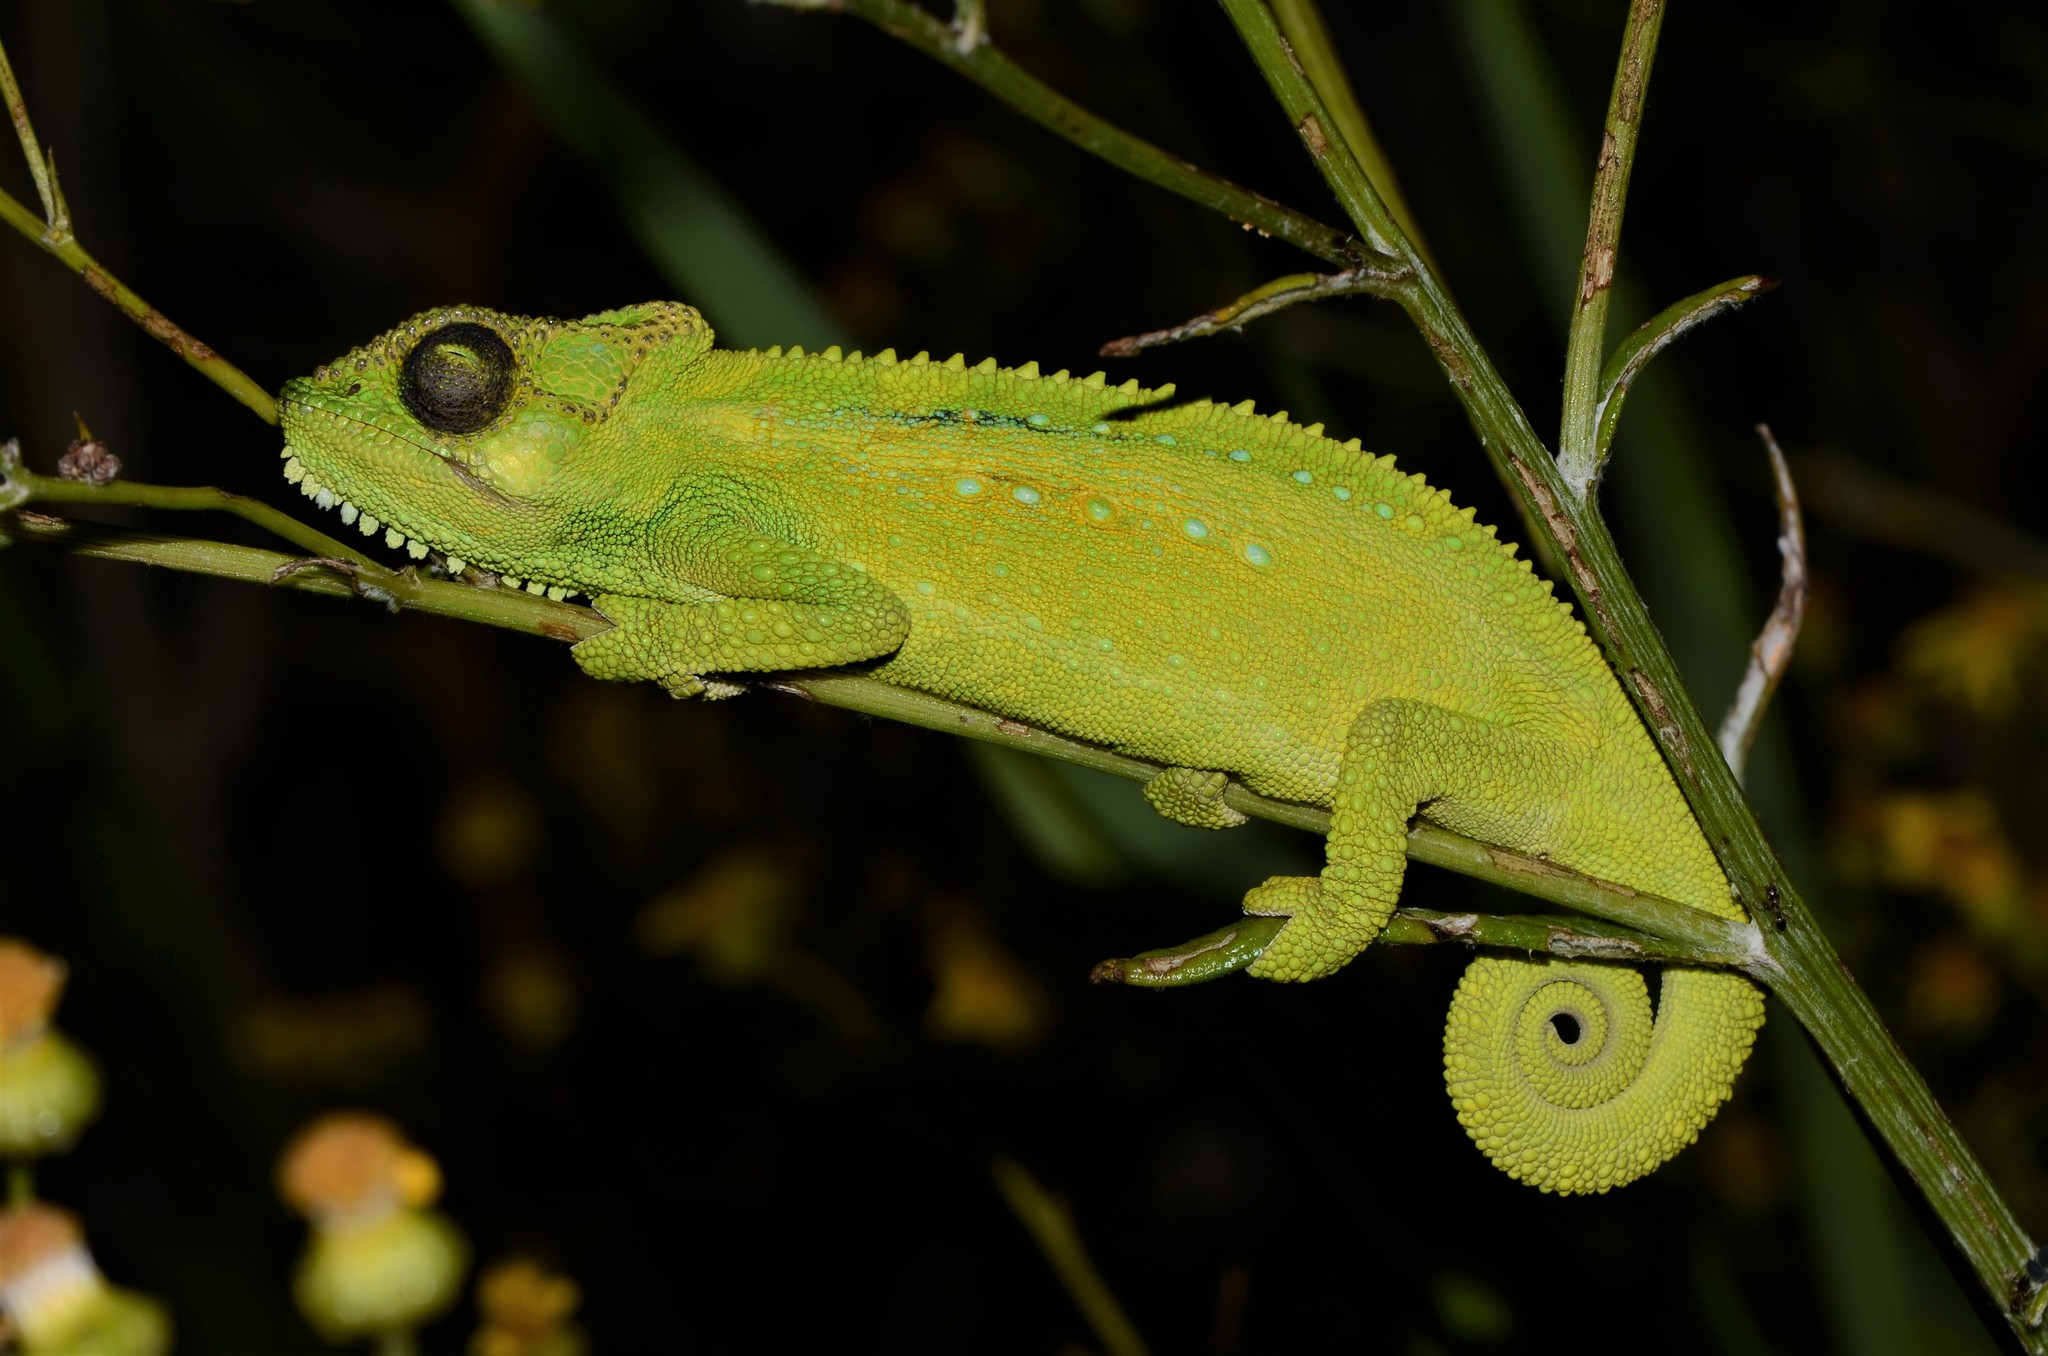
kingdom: Animalia
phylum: Chordata
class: Squamata
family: Chamaeleonidae
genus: Bradypodion
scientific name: Bradypodion pumilum
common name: Cape dwarf chameleon
